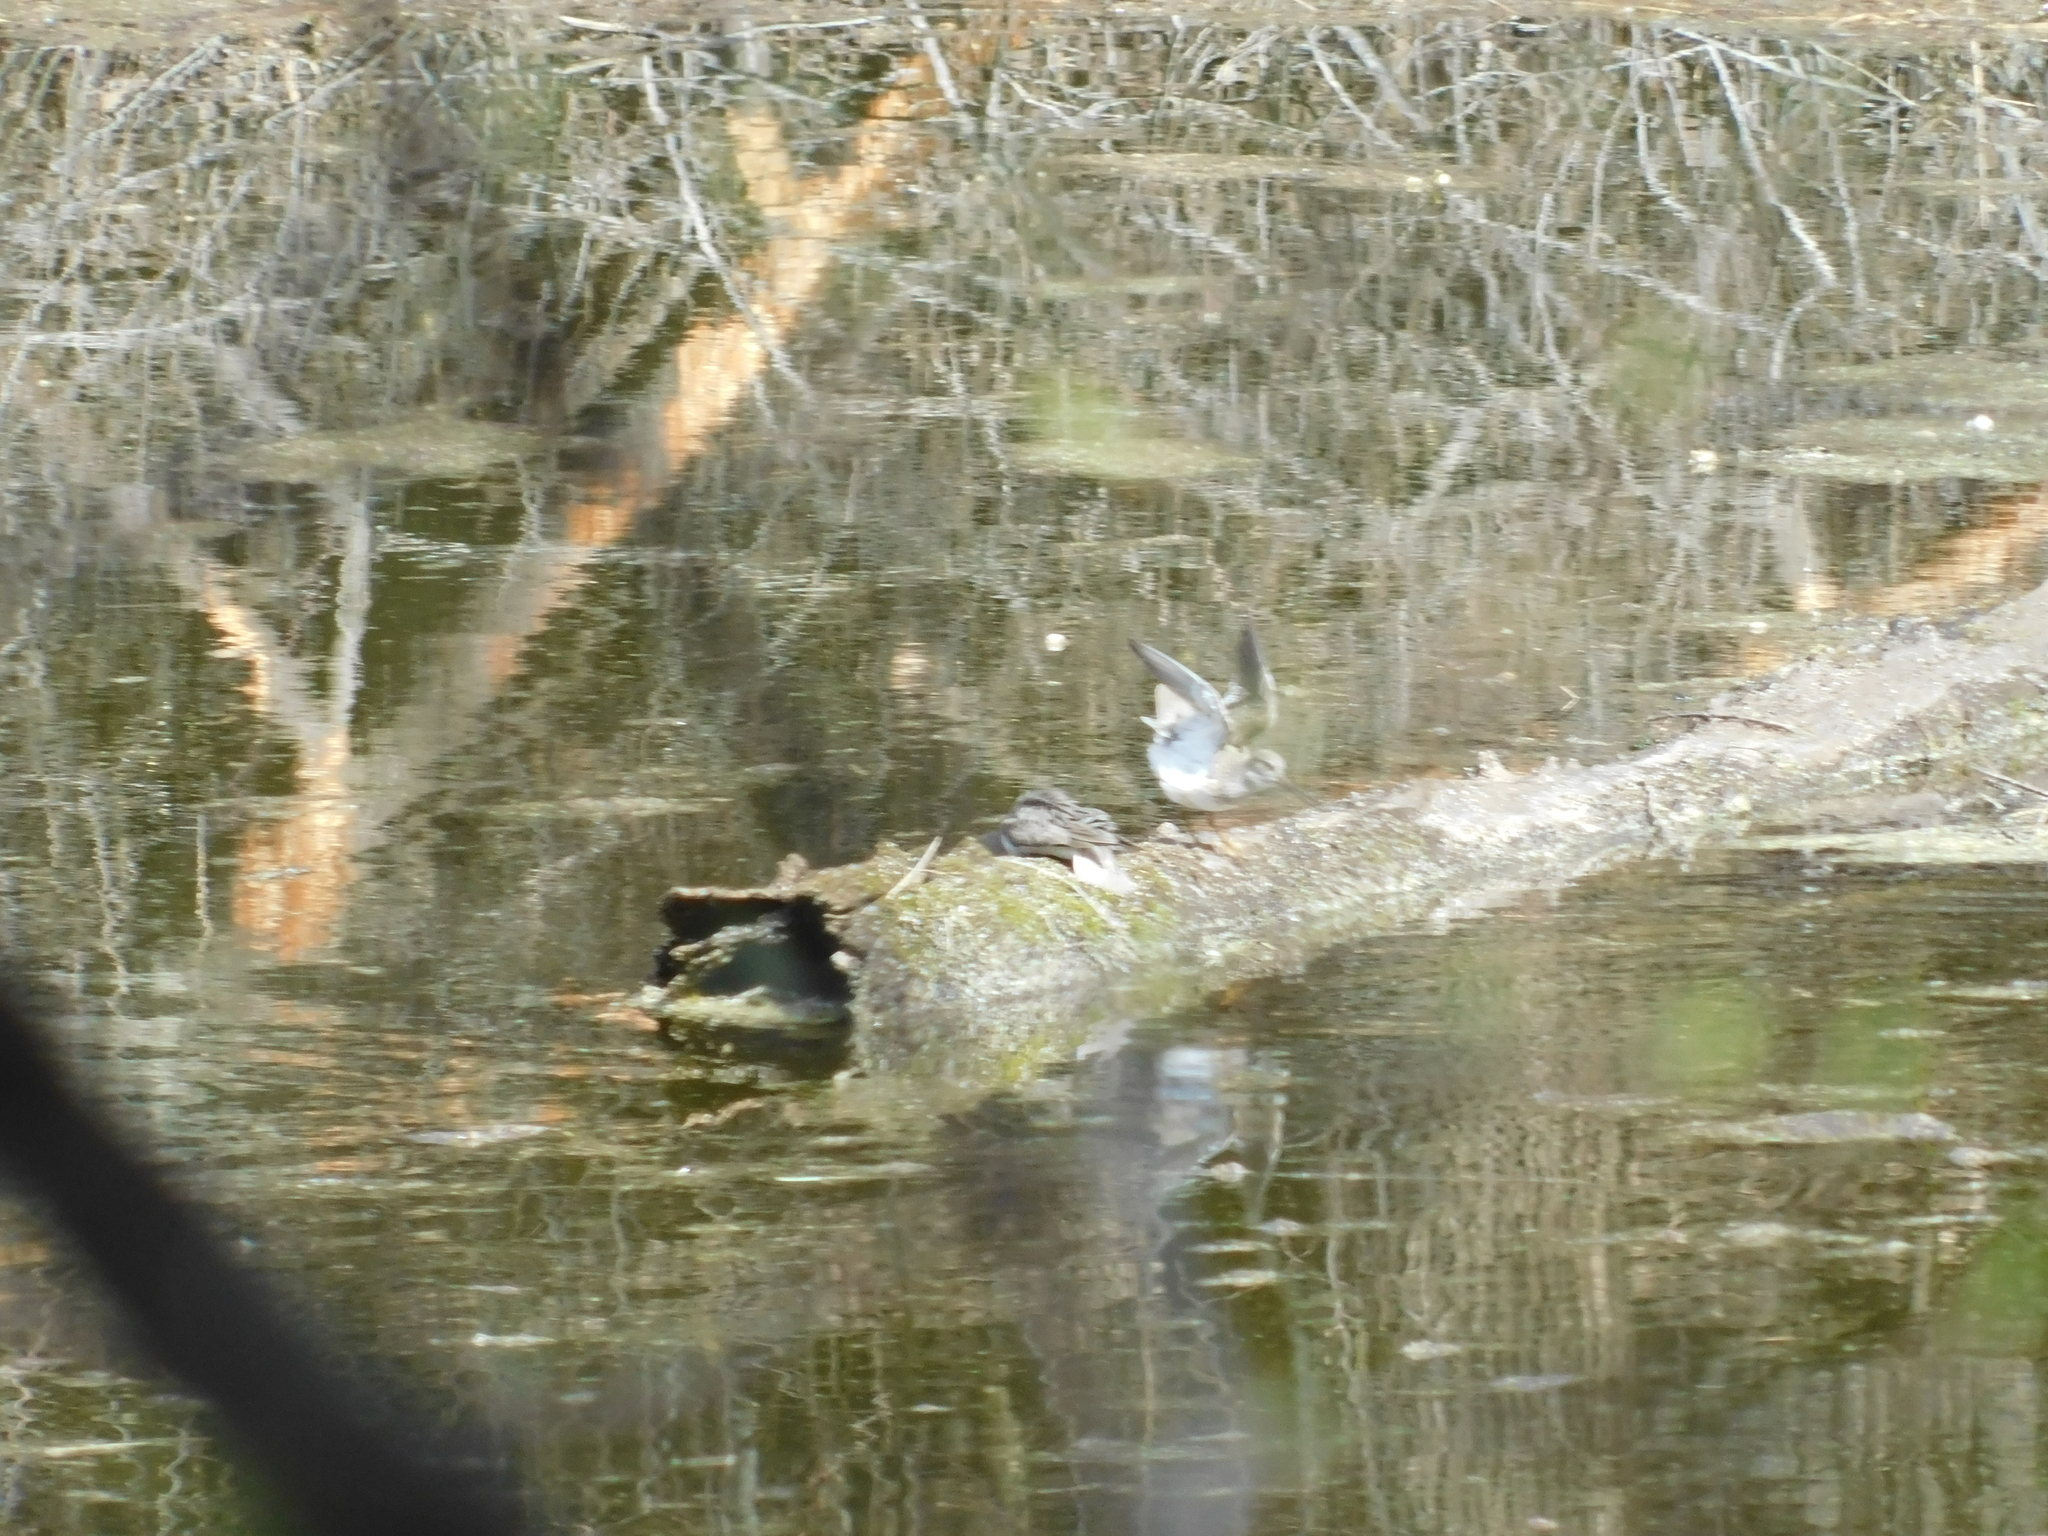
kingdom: Animalia
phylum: Chordata
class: Aves
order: Charadriiformes
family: Scolopacidae
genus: Xenus
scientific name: Xenus cinereus
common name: Terek sandpiper
